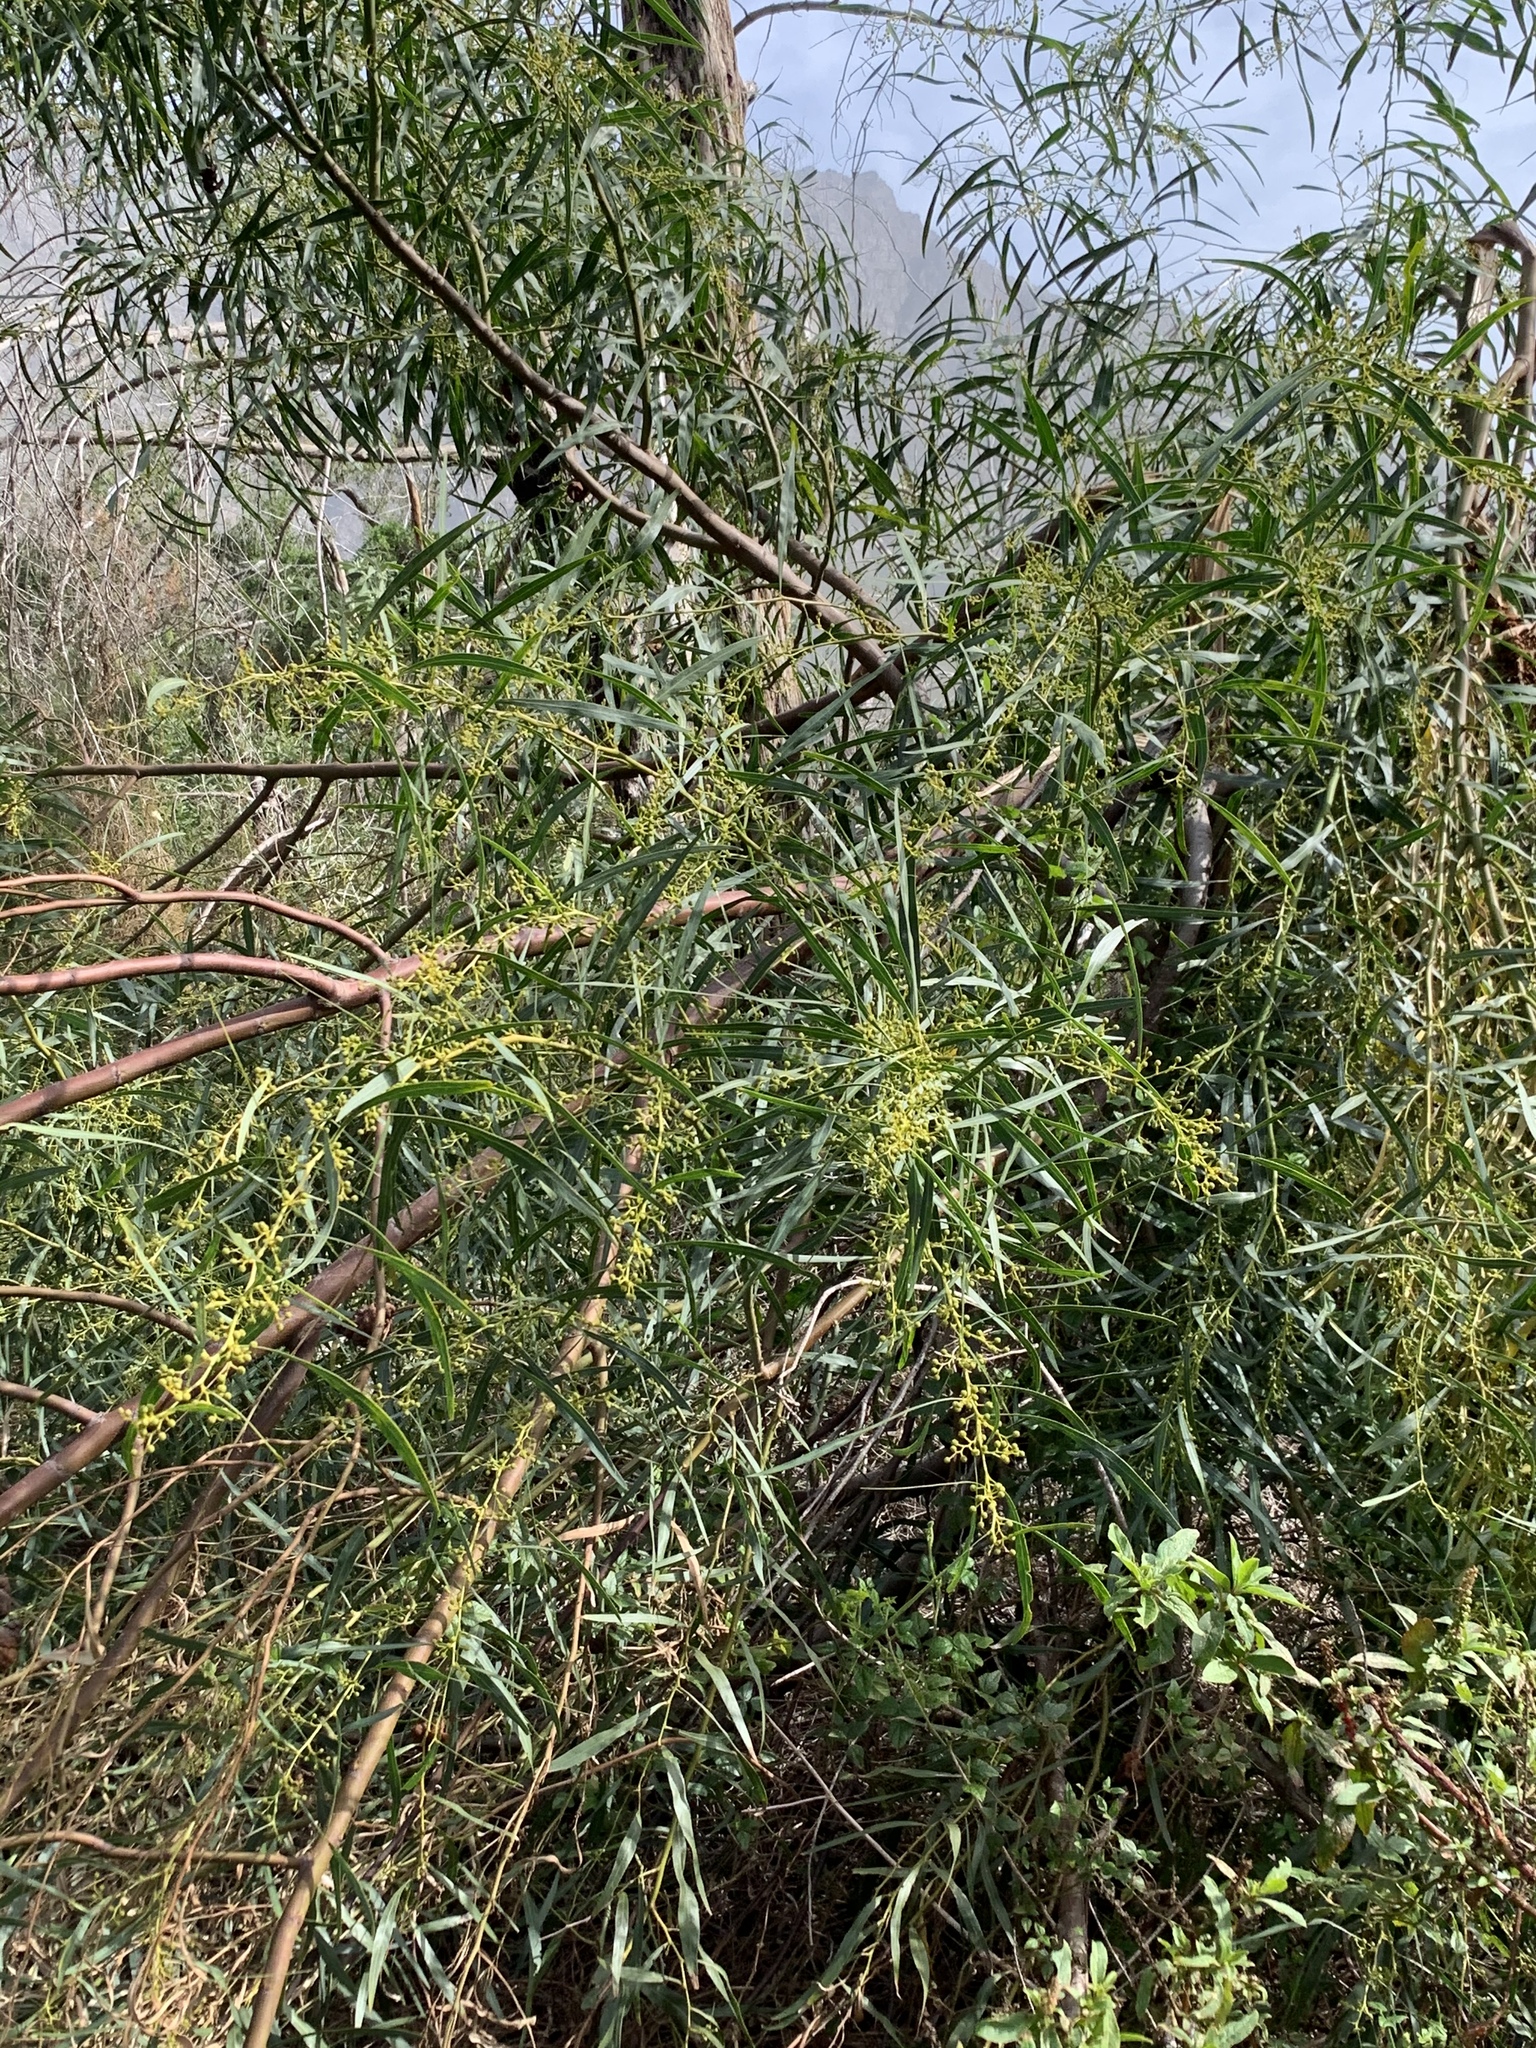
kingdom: Plantae
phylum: Tracheophyta
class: Magnoliopsida
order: Fabales
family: Fabaceae
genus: Acacia
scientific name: Acacia saligna
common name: Orange wattle
